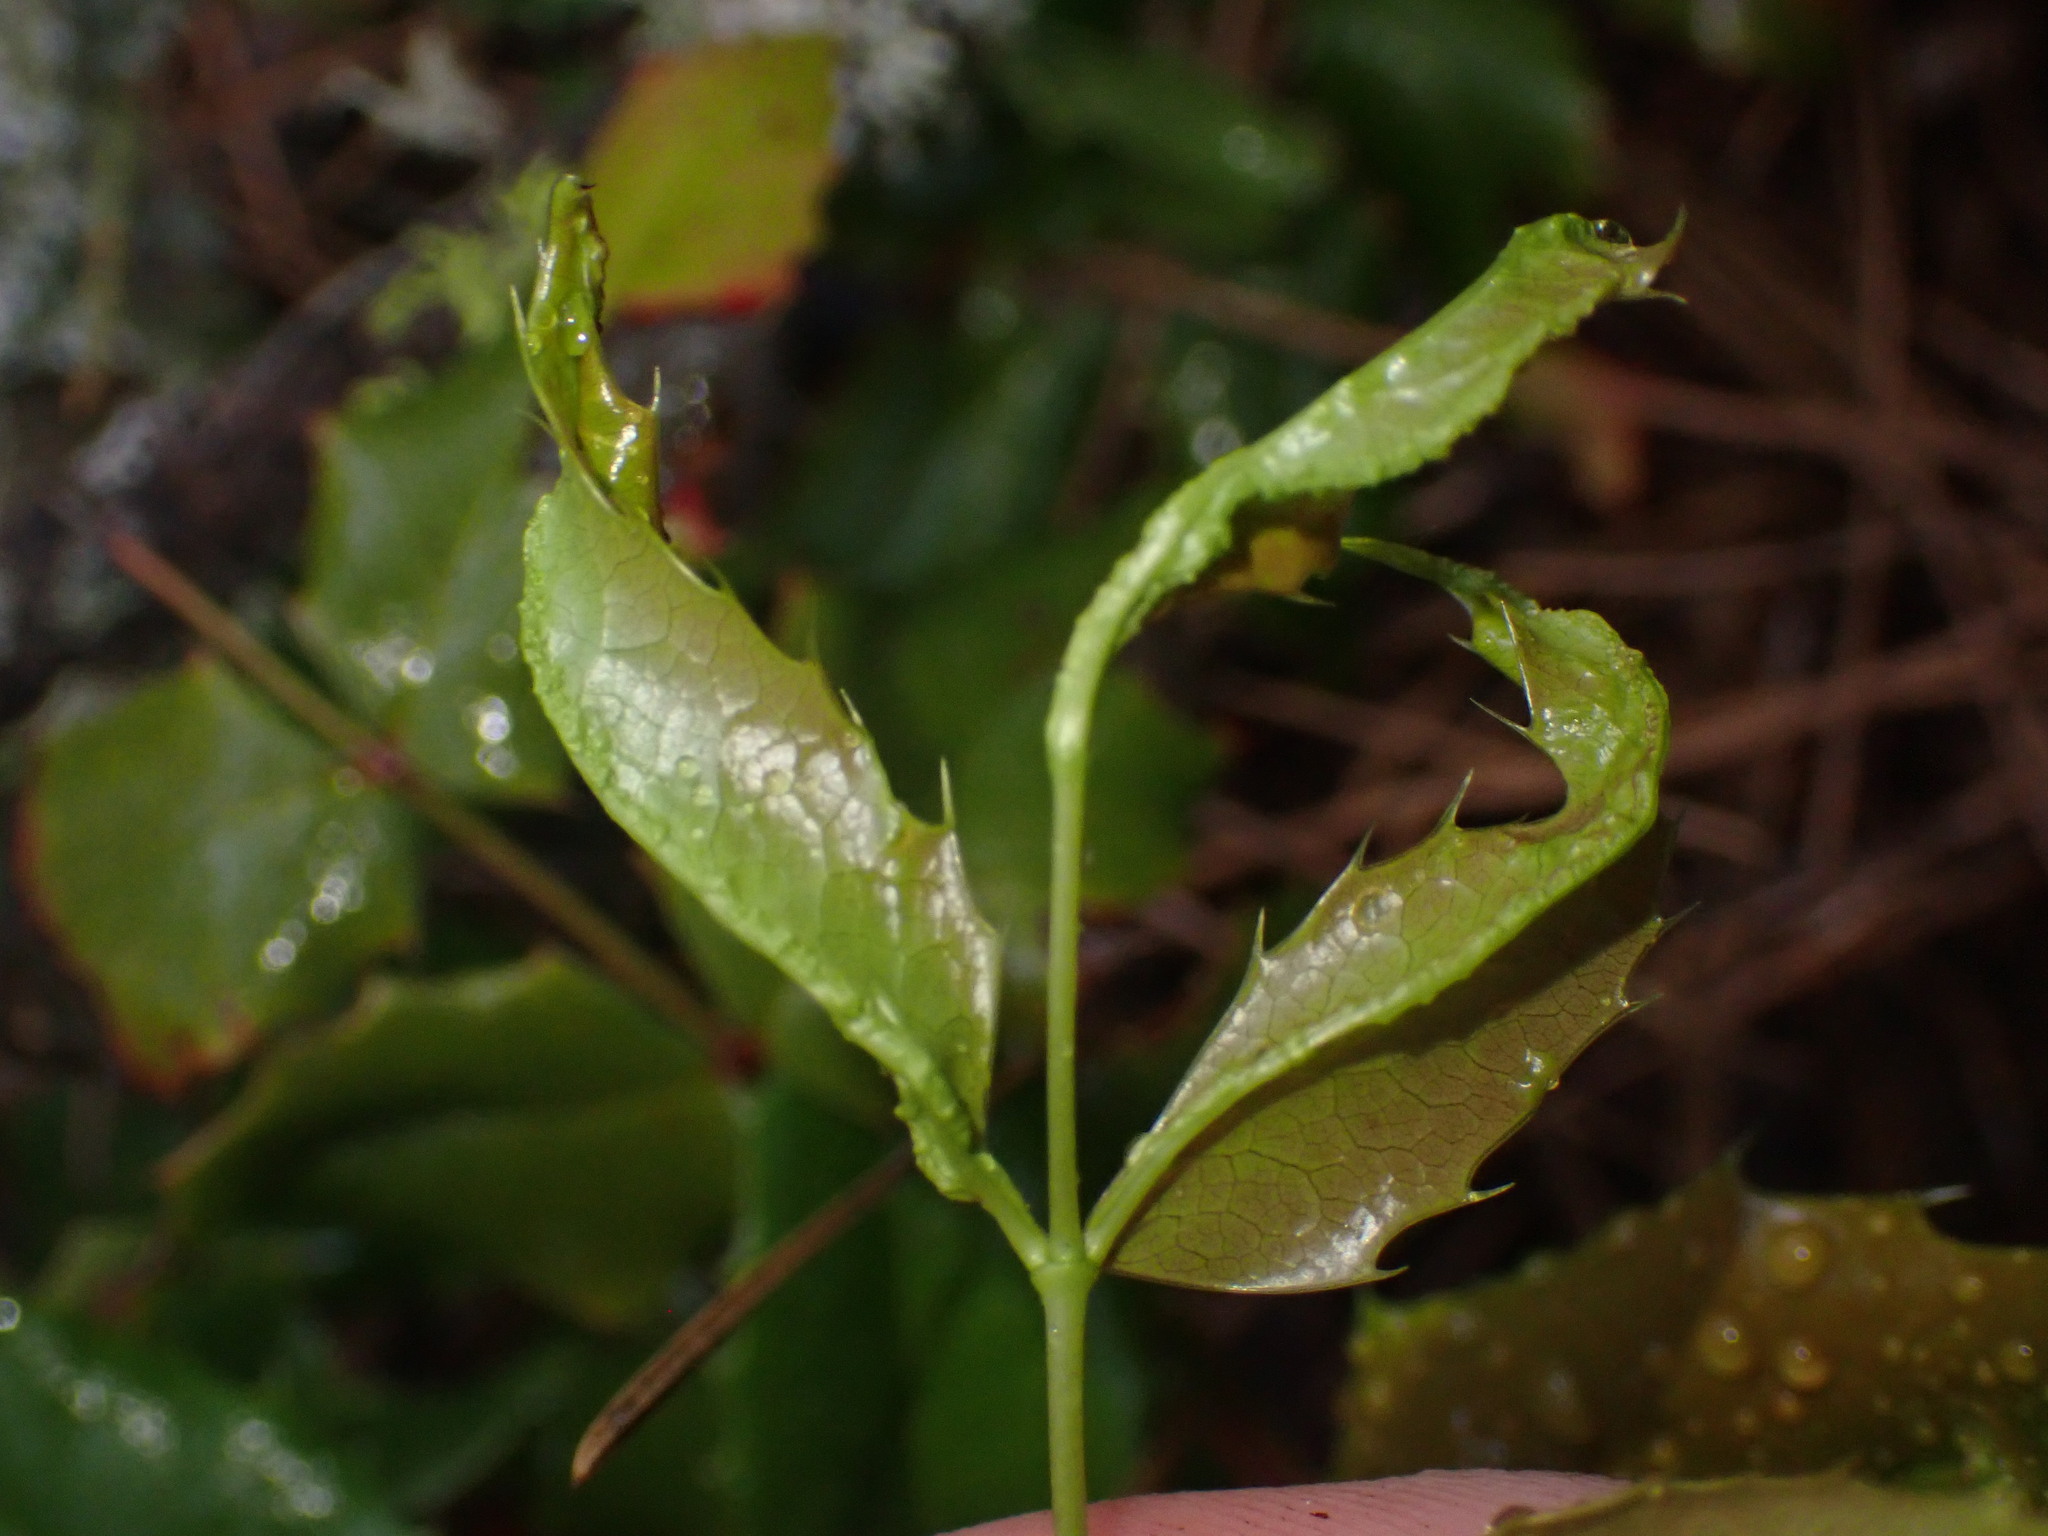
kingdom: Animalia
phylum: Arthropoda
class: Arachnida
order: Trombidiformes
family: Eriophyidae
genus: Aceria
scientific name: Aceria caliberberis
